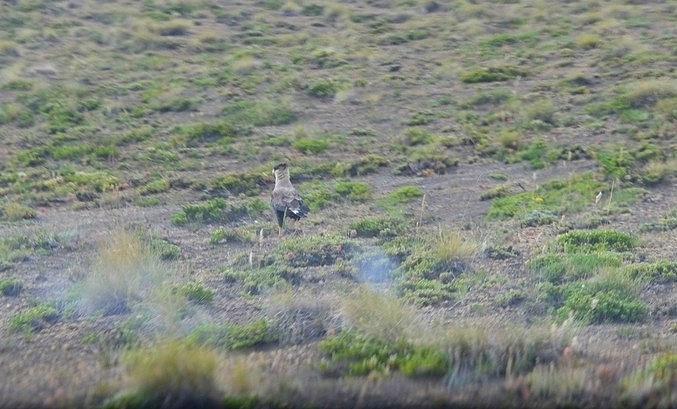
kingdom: Animalia
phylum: Chordata
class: Aves
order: Falconiformes
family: Falconidae
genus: Caracara
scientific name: Caracara plancus
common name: Southern caracara
